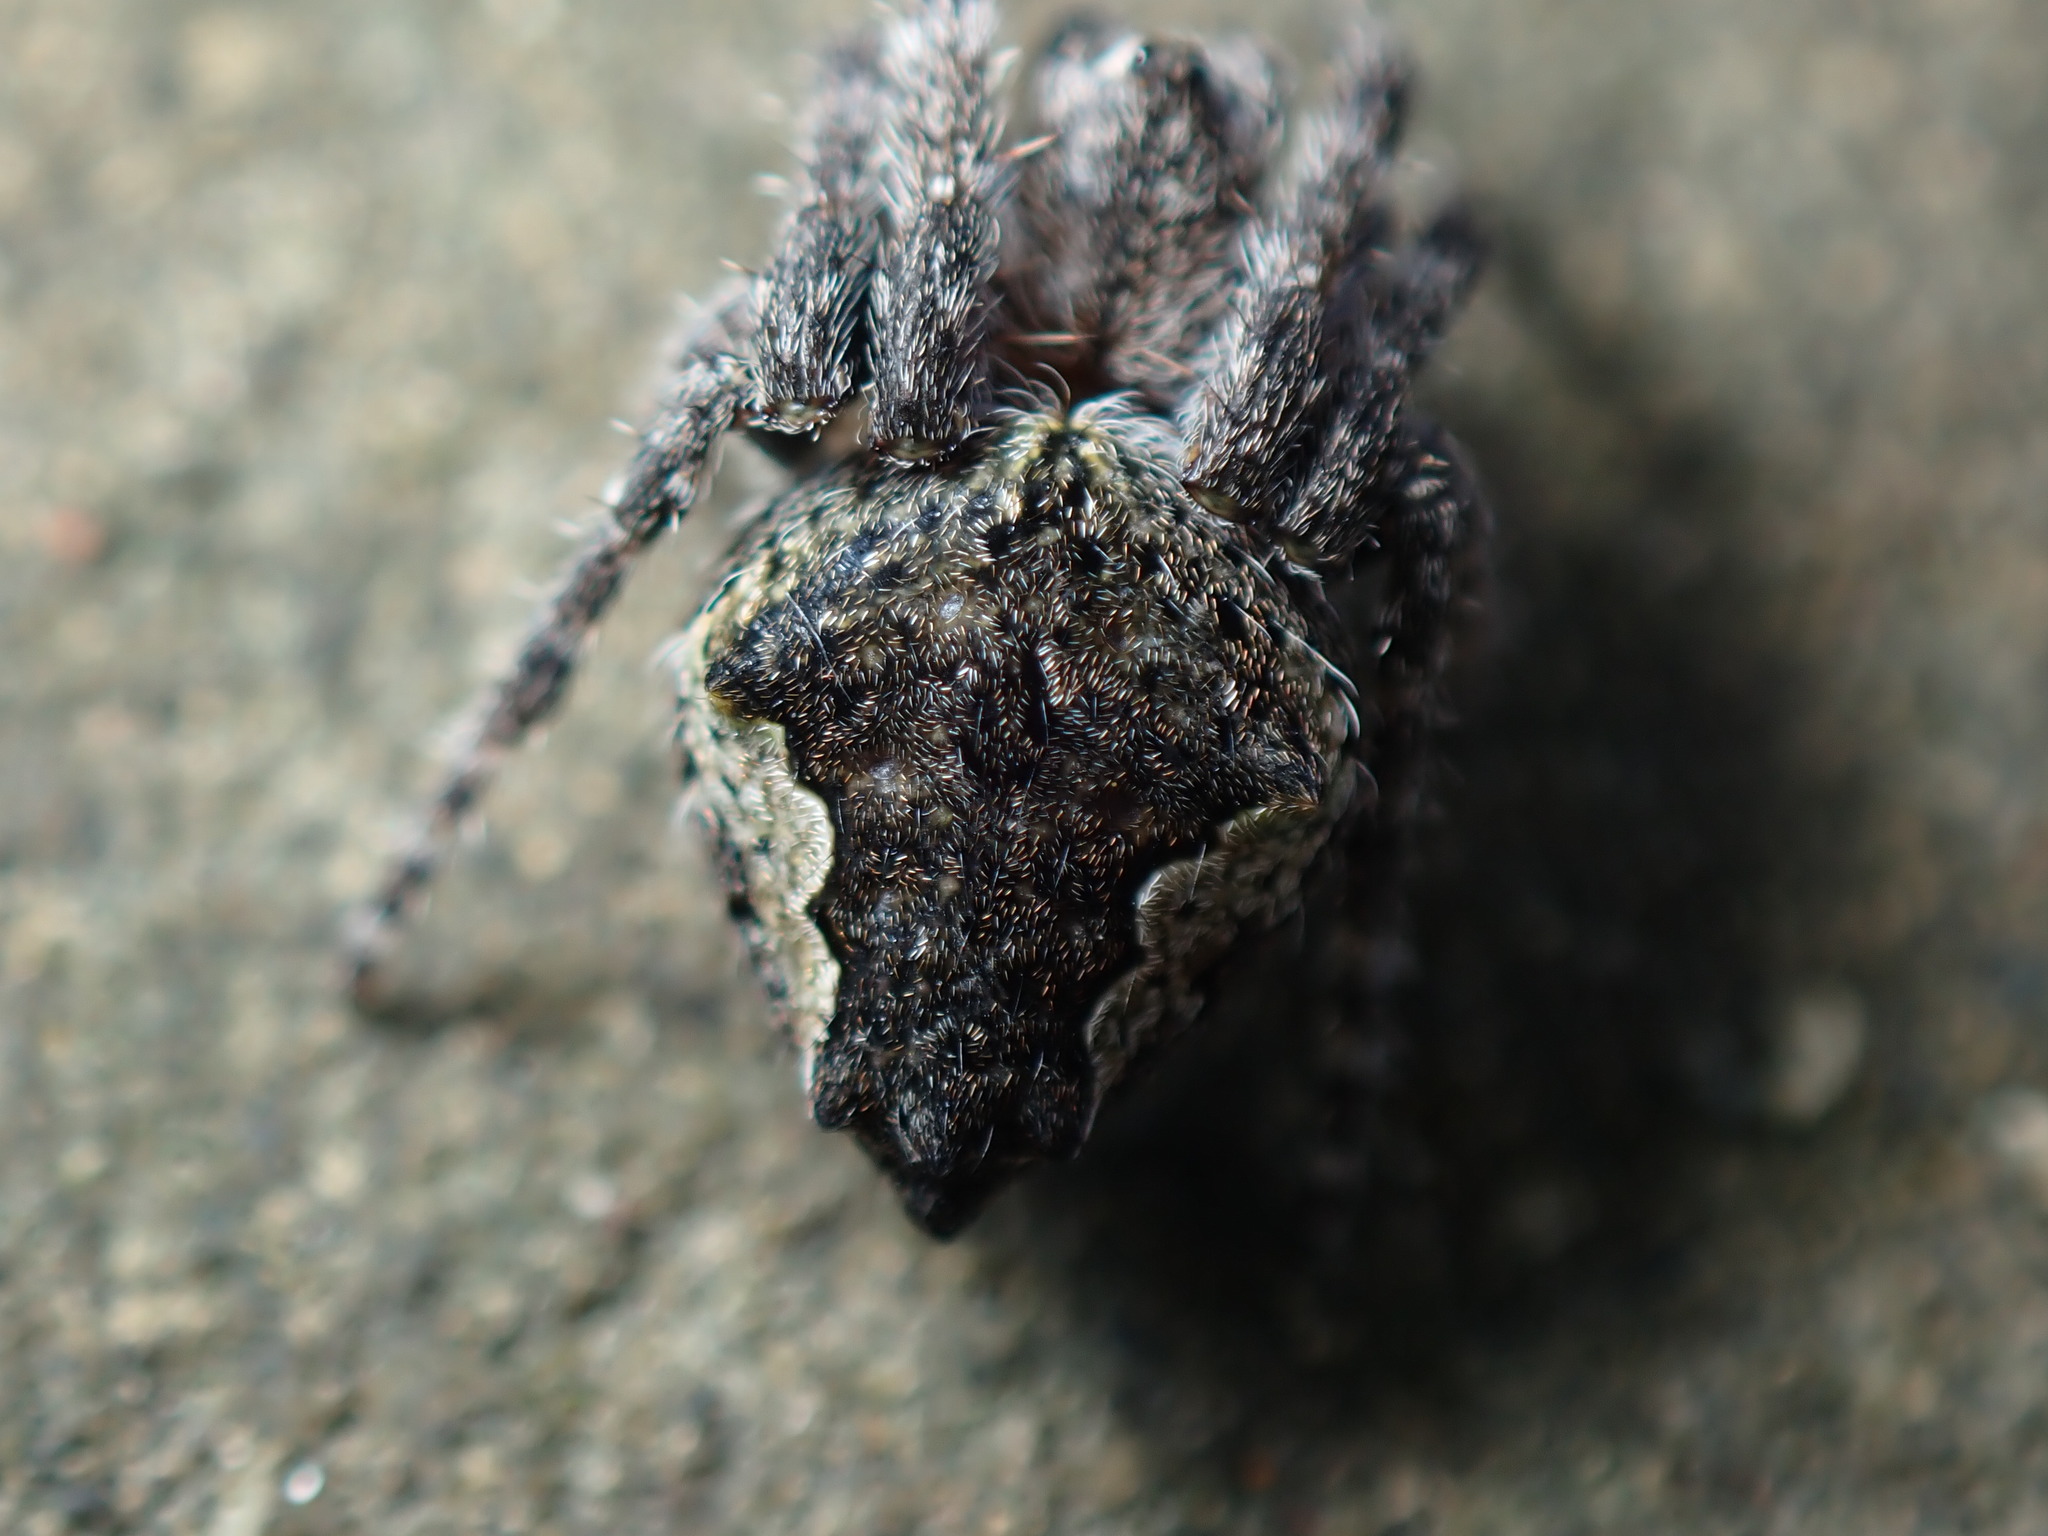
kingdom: Animalia
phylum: Arthropoda
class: Arachnida
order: Araneae
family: Araneidae
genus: Eriophora
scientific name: Eriophora pustulosa
